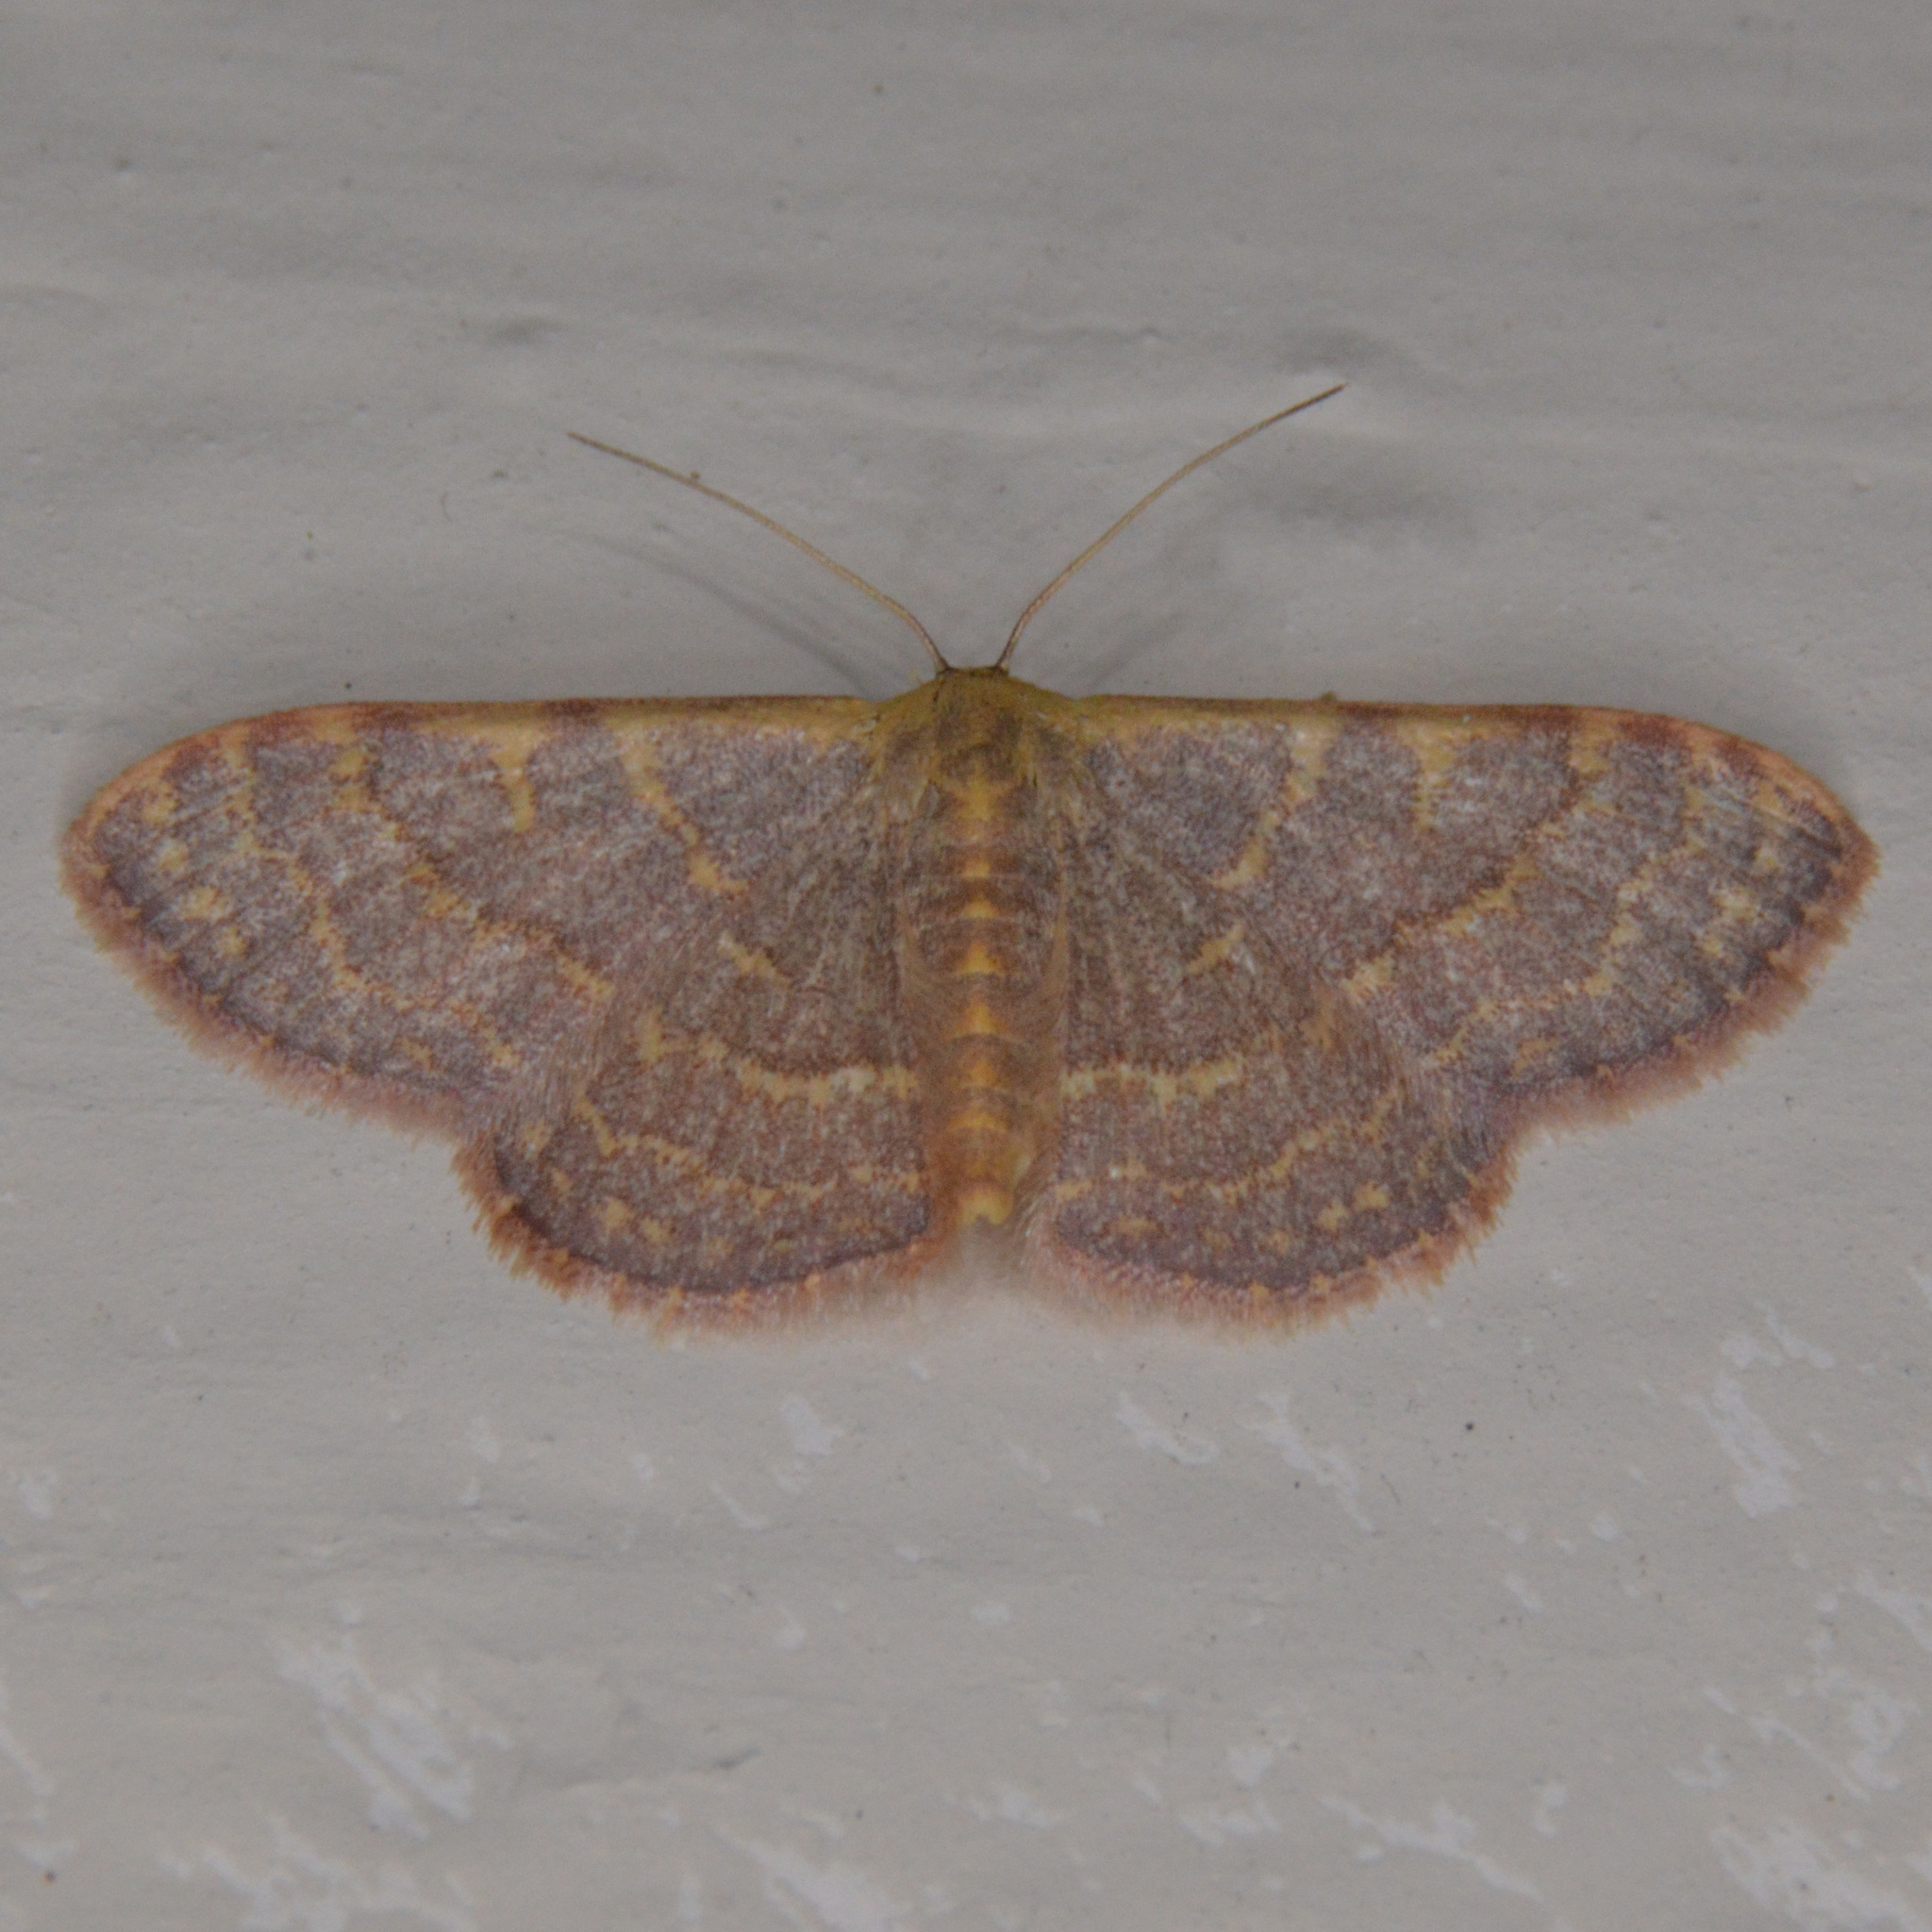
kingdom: Animalia
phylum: Arthropoda
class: Insecta
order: Lepidoptera
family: Geometridae
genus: Leptostales
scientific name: Leptostales pannaria
